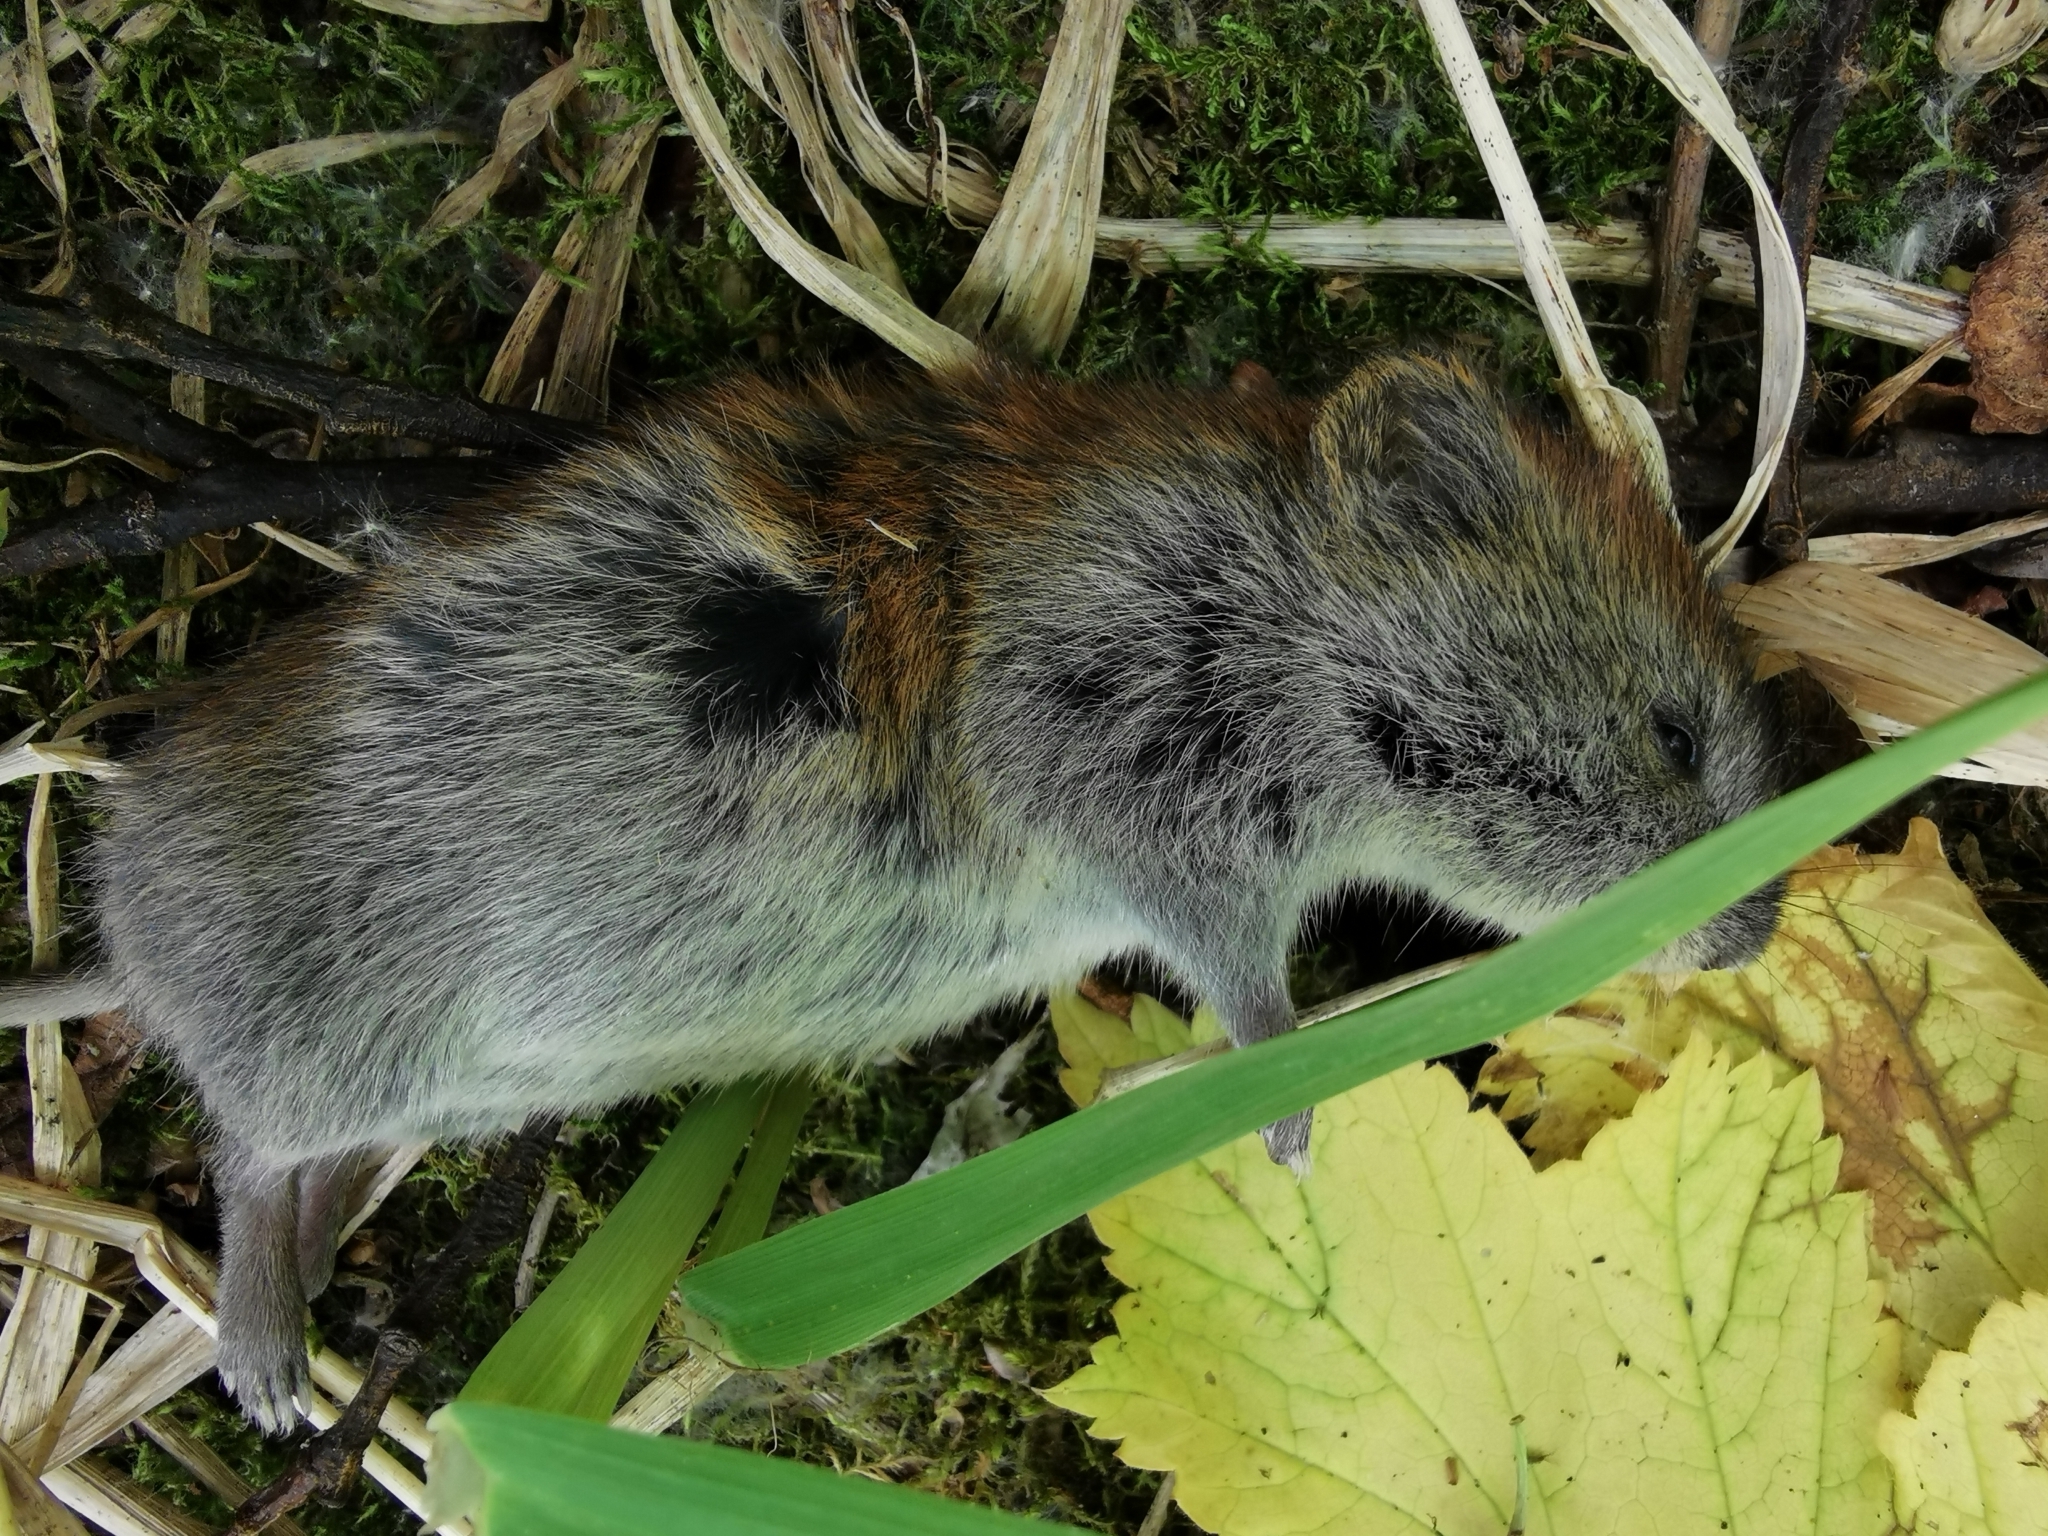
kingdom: Animalia
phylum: Chordata
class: Mammalia
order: Rodentia
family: Cricetidae
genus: Myodes
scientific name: Myodes rufocanus
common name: Gray red-backed vole
